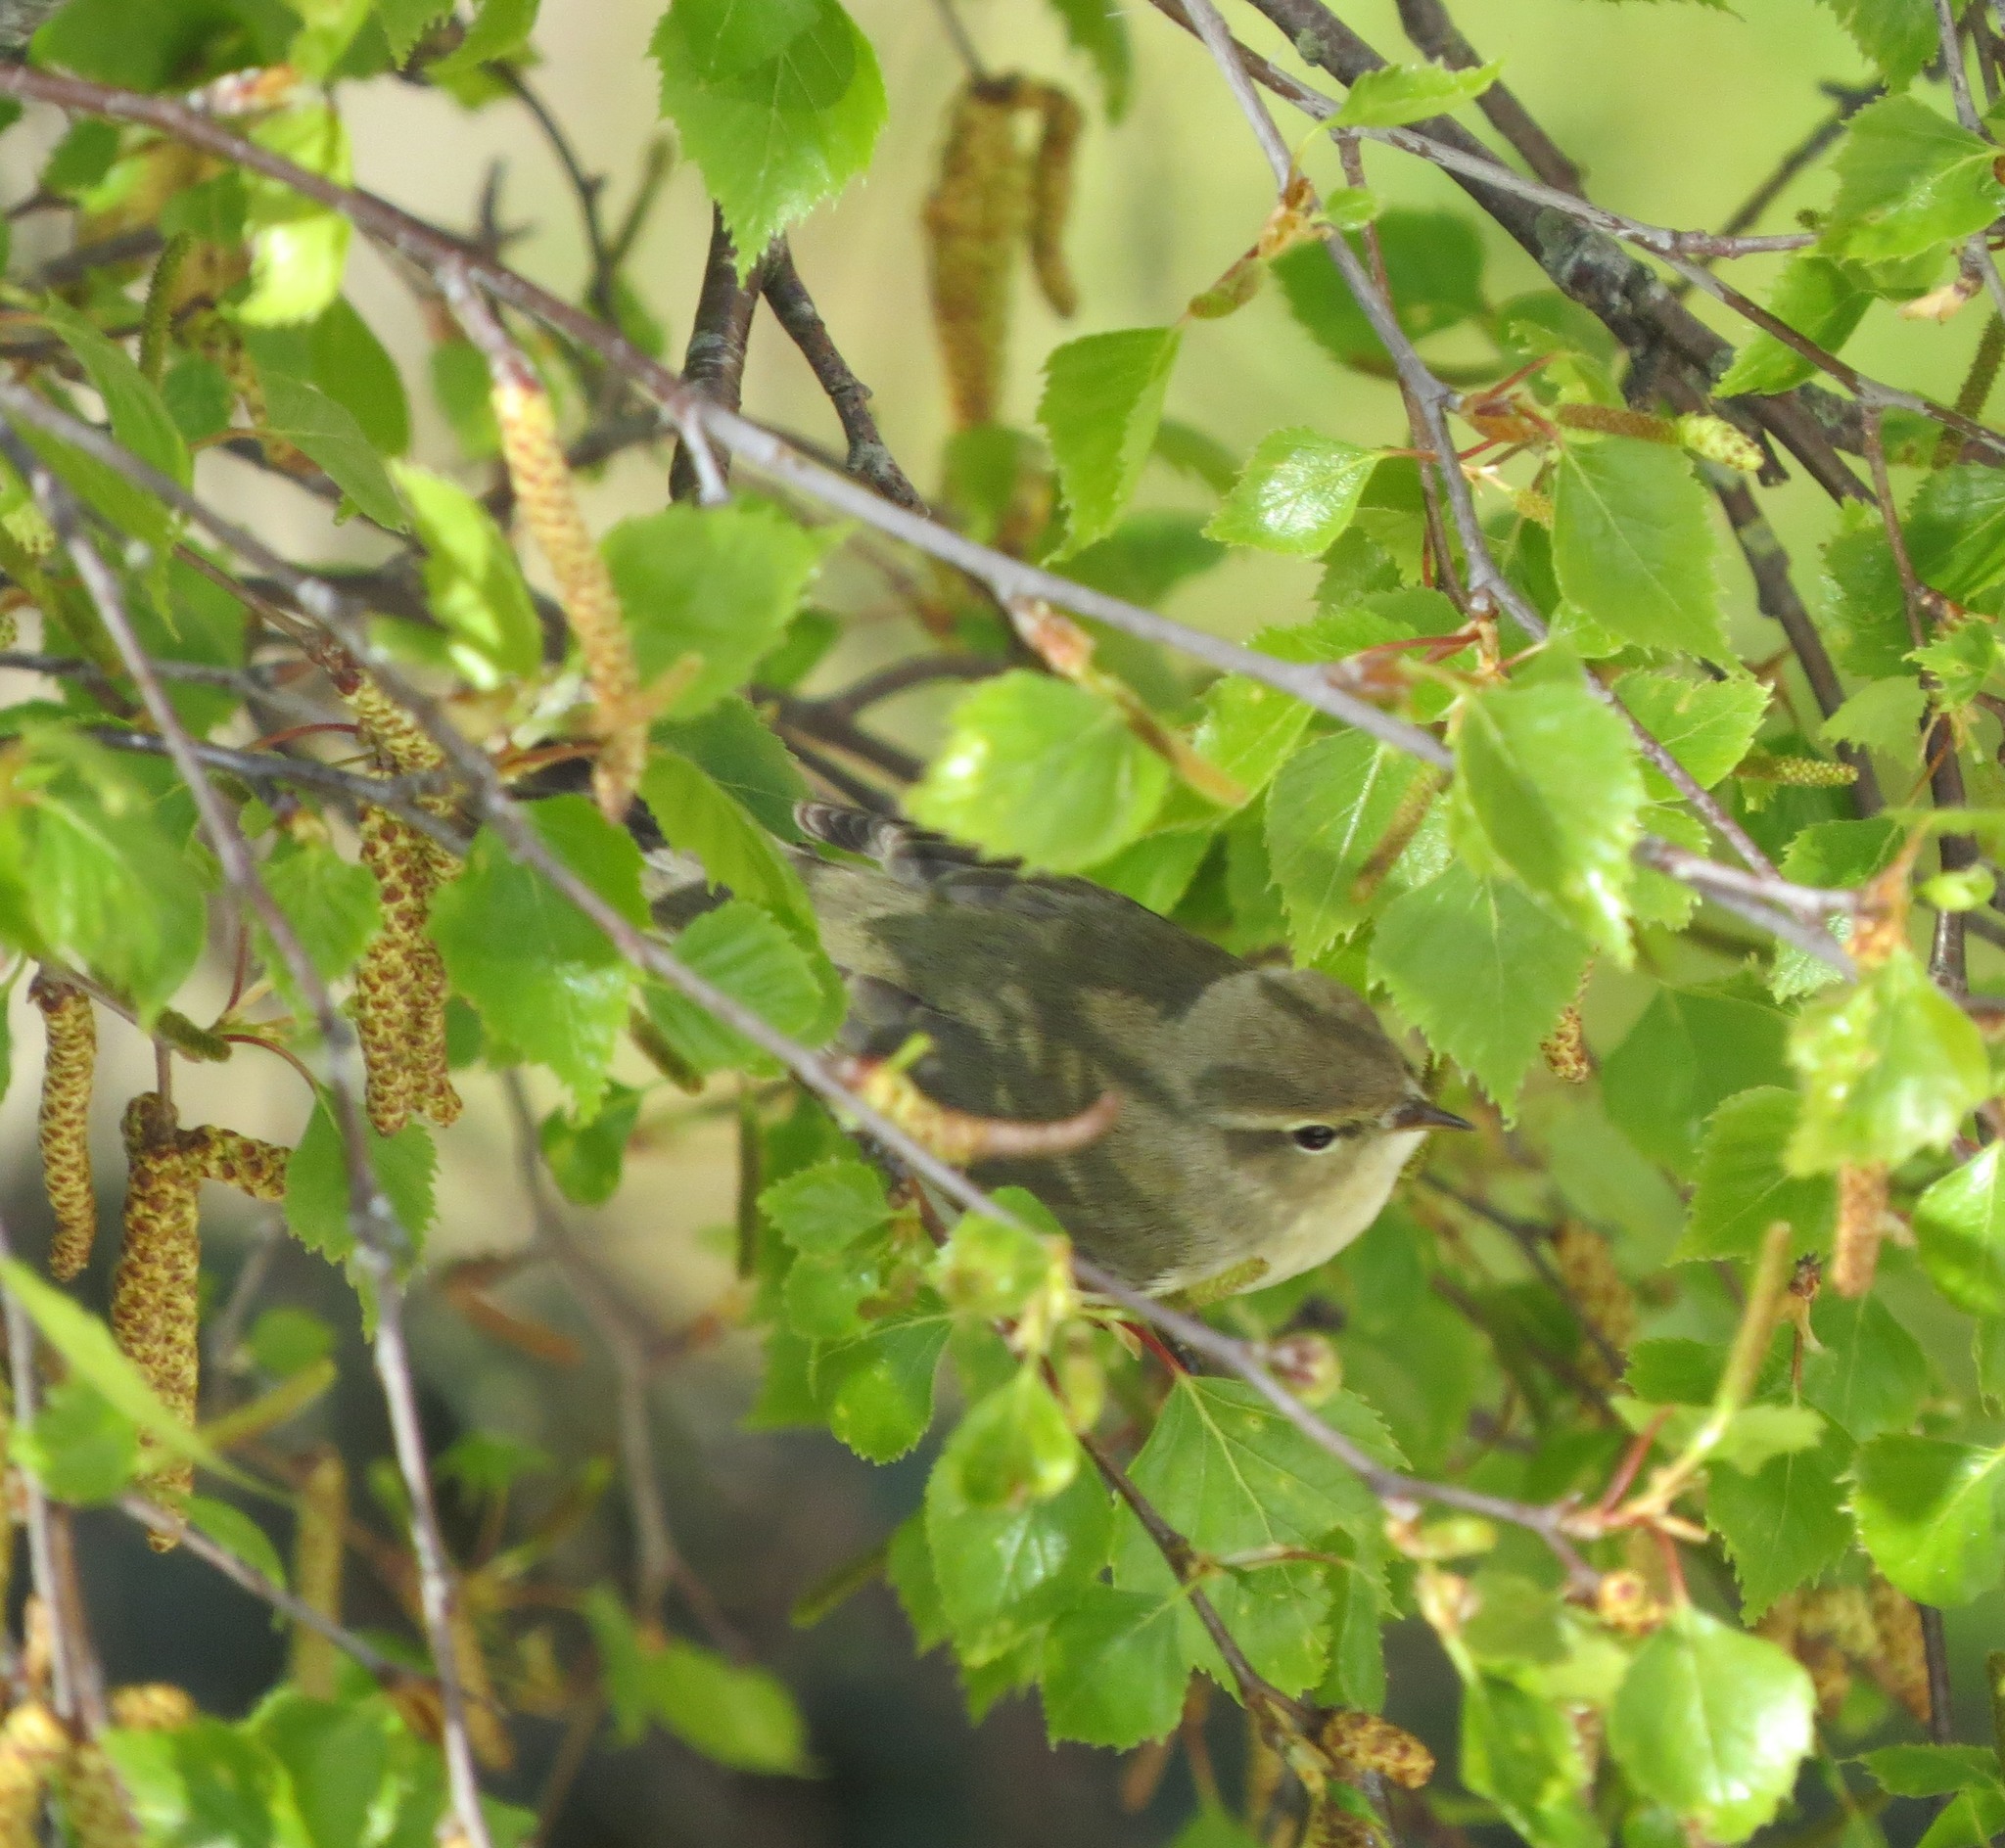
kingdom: Animalia
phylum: Chordata
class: Aves
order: Passeriformes
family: Phylloscopidae
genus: Phylloscopus
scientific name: Phylloscopus trochilus
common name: Willow warbler
